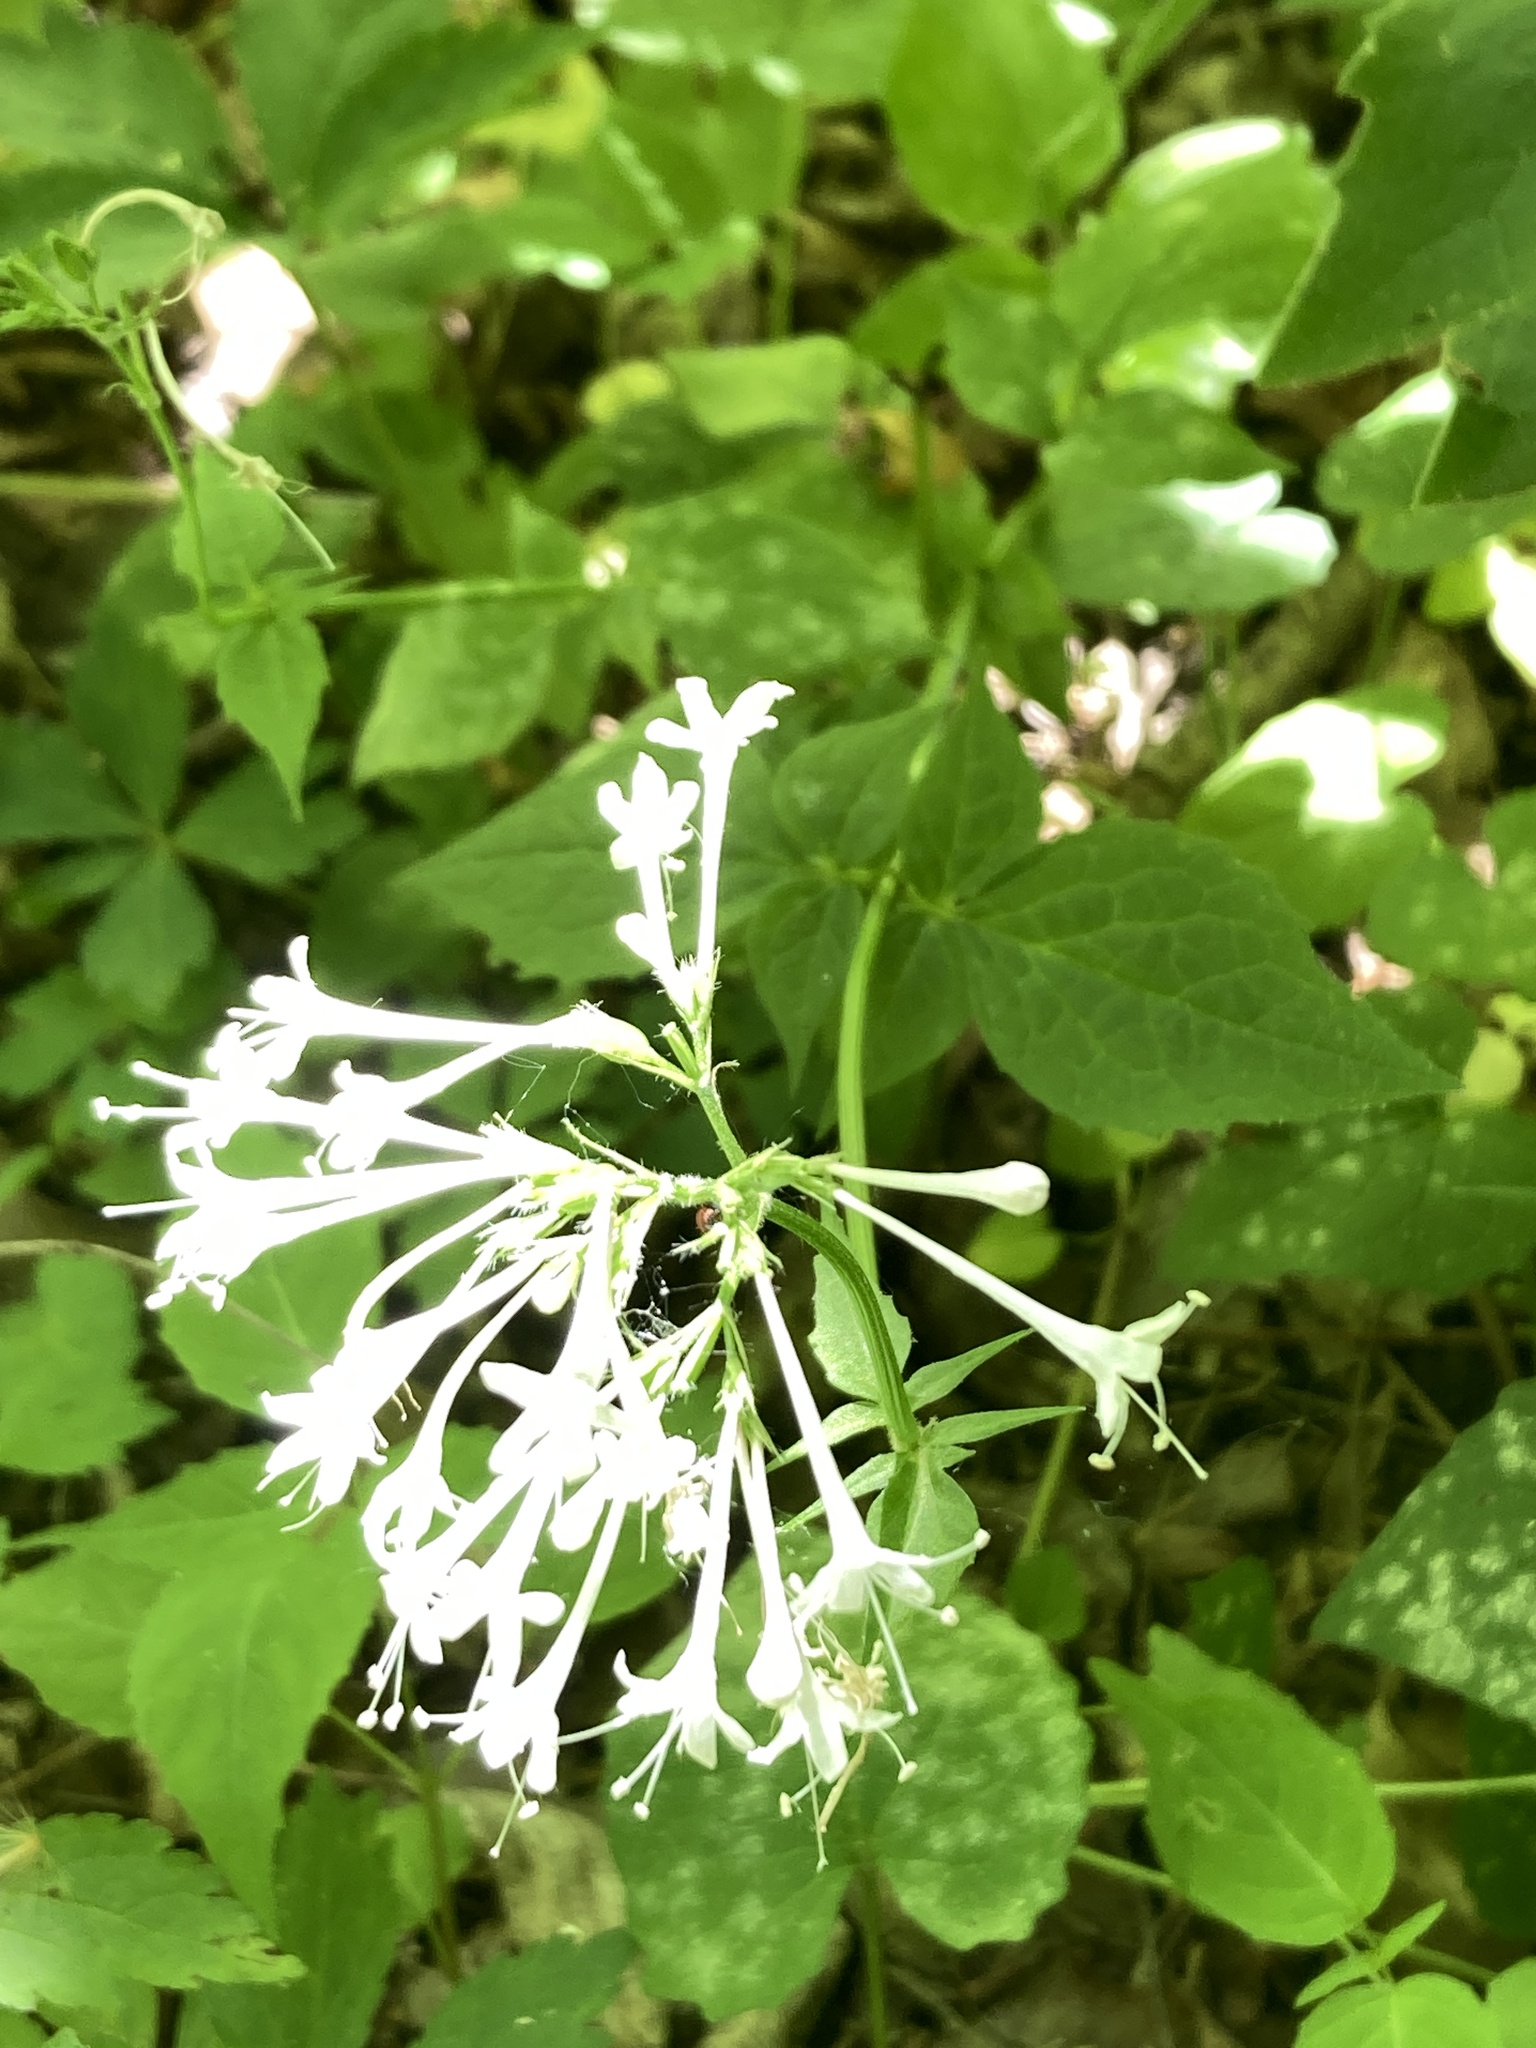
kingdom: Plantae
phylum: Tracheophyta
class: Magnoliopsida
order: Dipsacales
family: Caprifoliaceae
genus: Valeriana
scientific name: Valeriana pauciflora
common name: Long-tube valeriana
